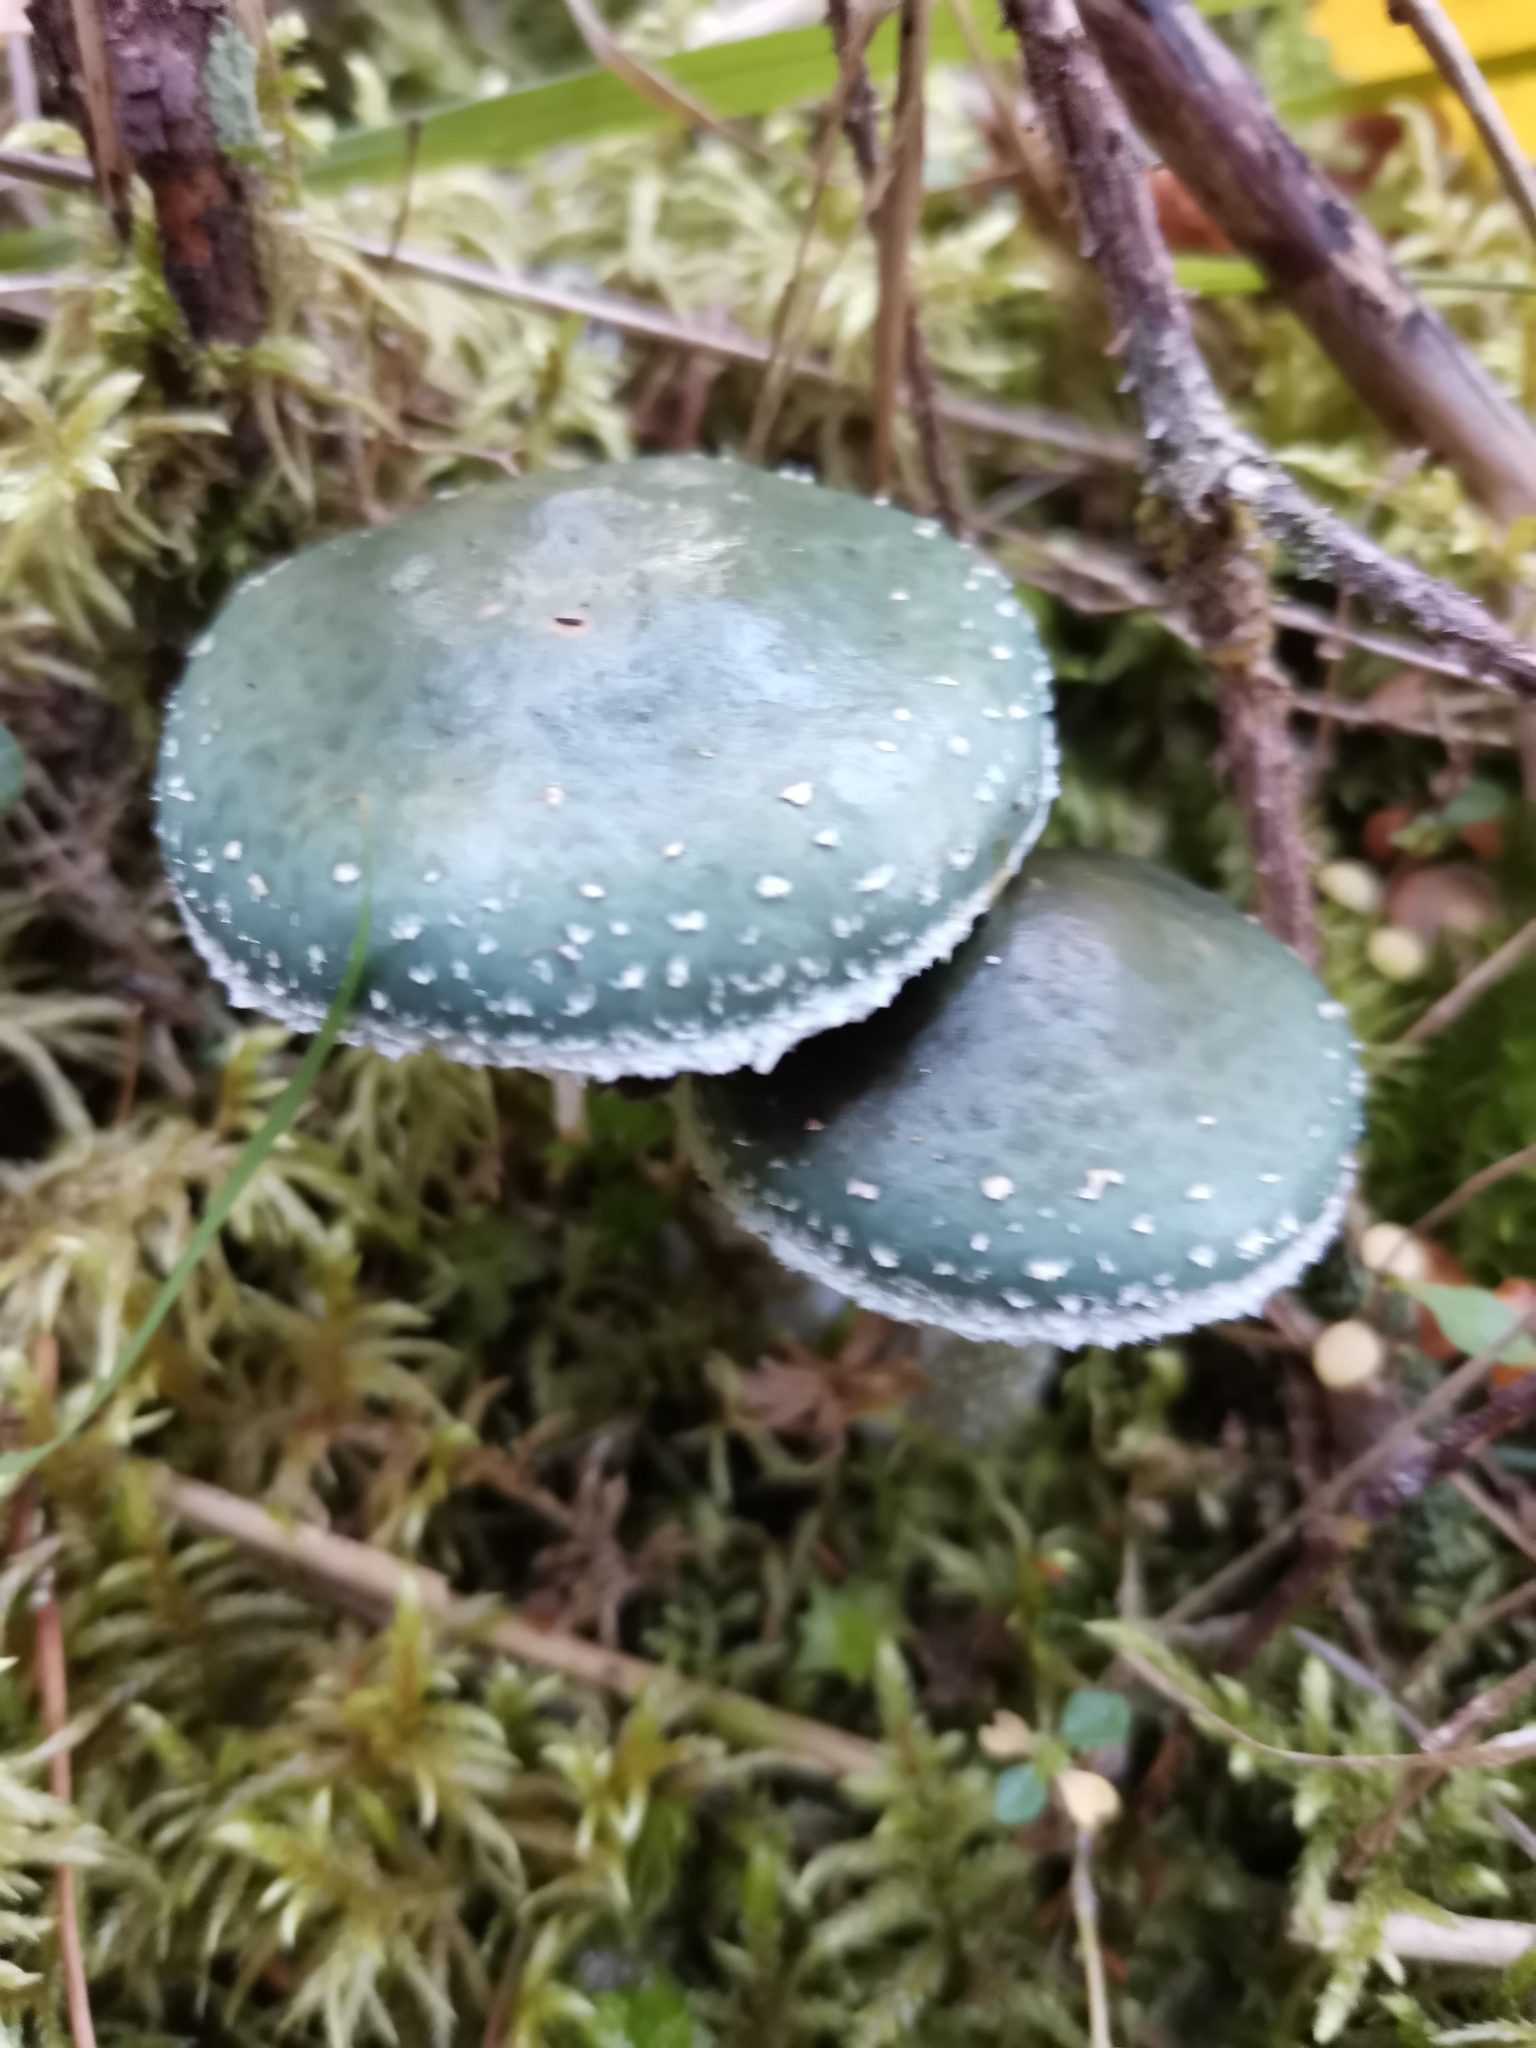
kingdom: Fungi
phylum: Basidiomycota
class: Agaricomycetes
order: Agaricales
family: Strophariaceae
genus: Stropharia
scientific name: Stropharia aeruginosa
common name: Verdigris roundhead
